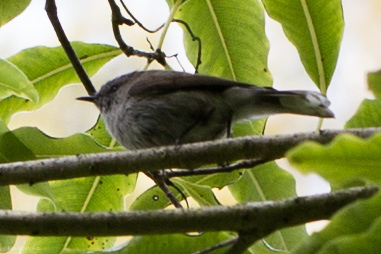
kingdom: Animalia
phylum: Chordata
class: Aves
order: Passeriformes
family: Acanthizidae
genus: Gerygone
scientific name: Gerygone igata
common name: Grey gerygone
